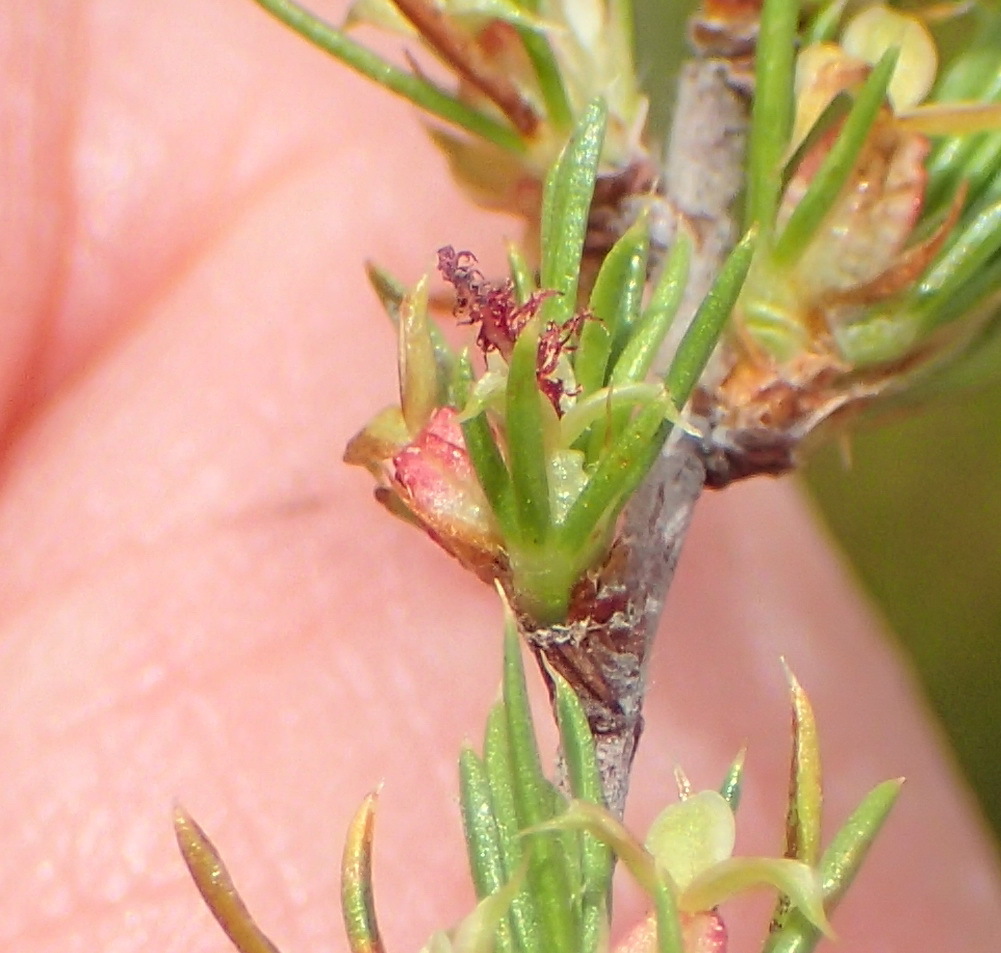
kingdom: Plantae
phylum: Tracheophyta
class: Magnoliopsida
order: Rosales
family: Rosaceae
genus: Cliffortia
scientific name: Cliffortia tuberculata
